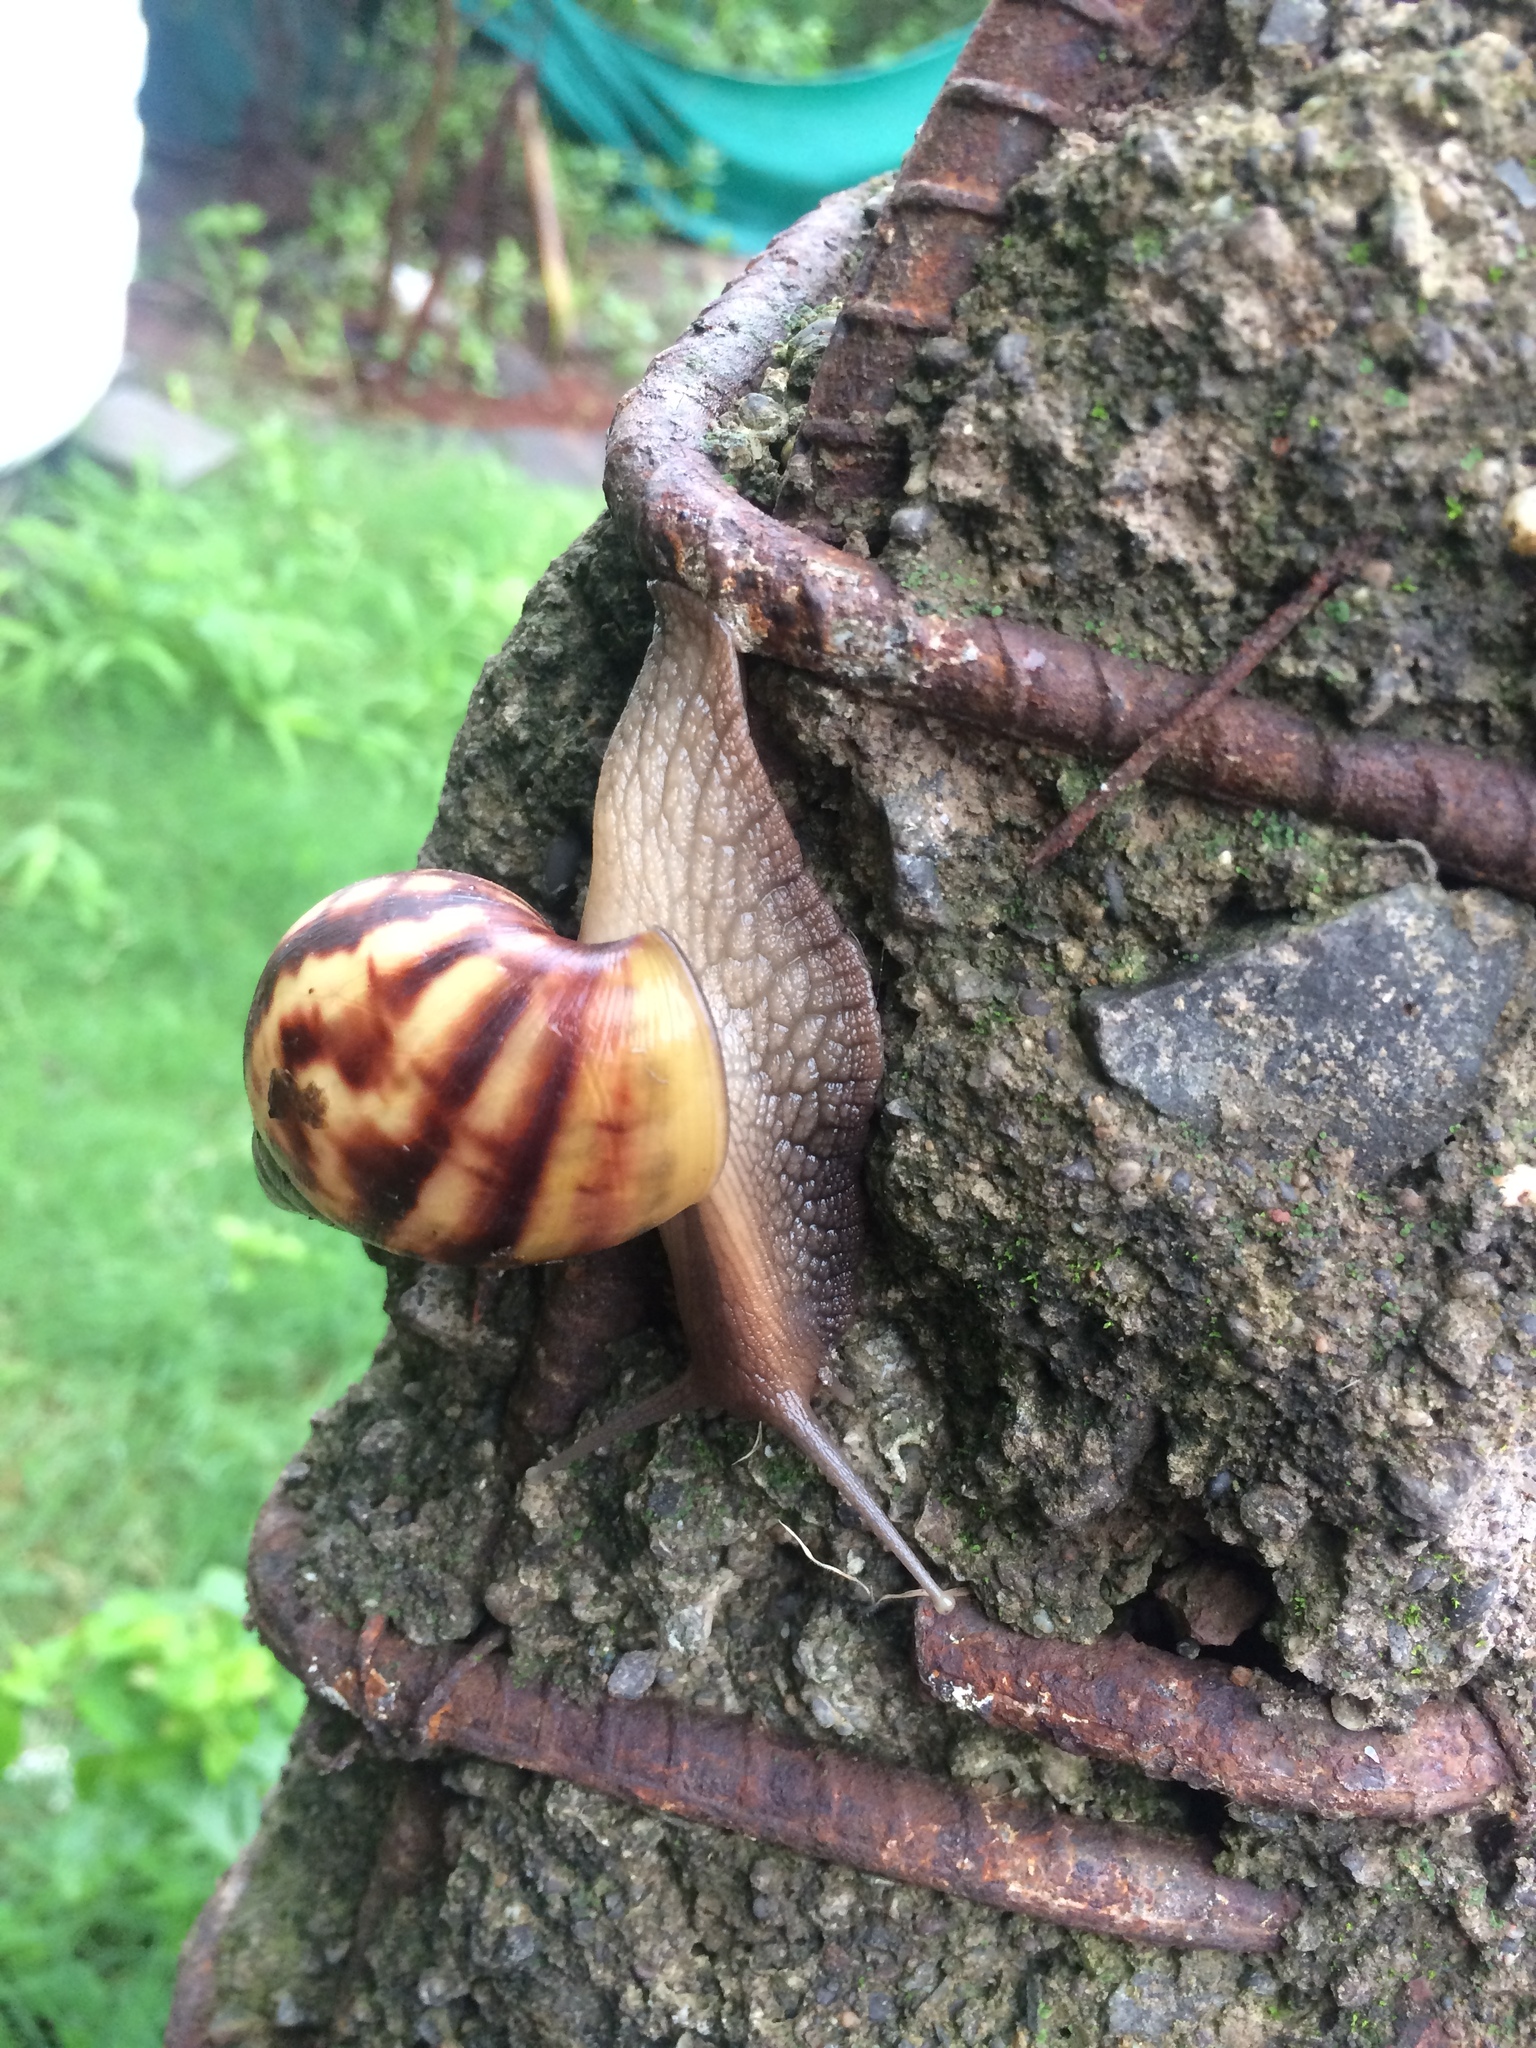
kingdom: Animalia
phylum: Mollusca
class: Gastropoda
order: Stylommatophora
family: Achatinidae
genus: Lissachatina
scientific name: Lissachatina fulica
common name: Giant african snail
